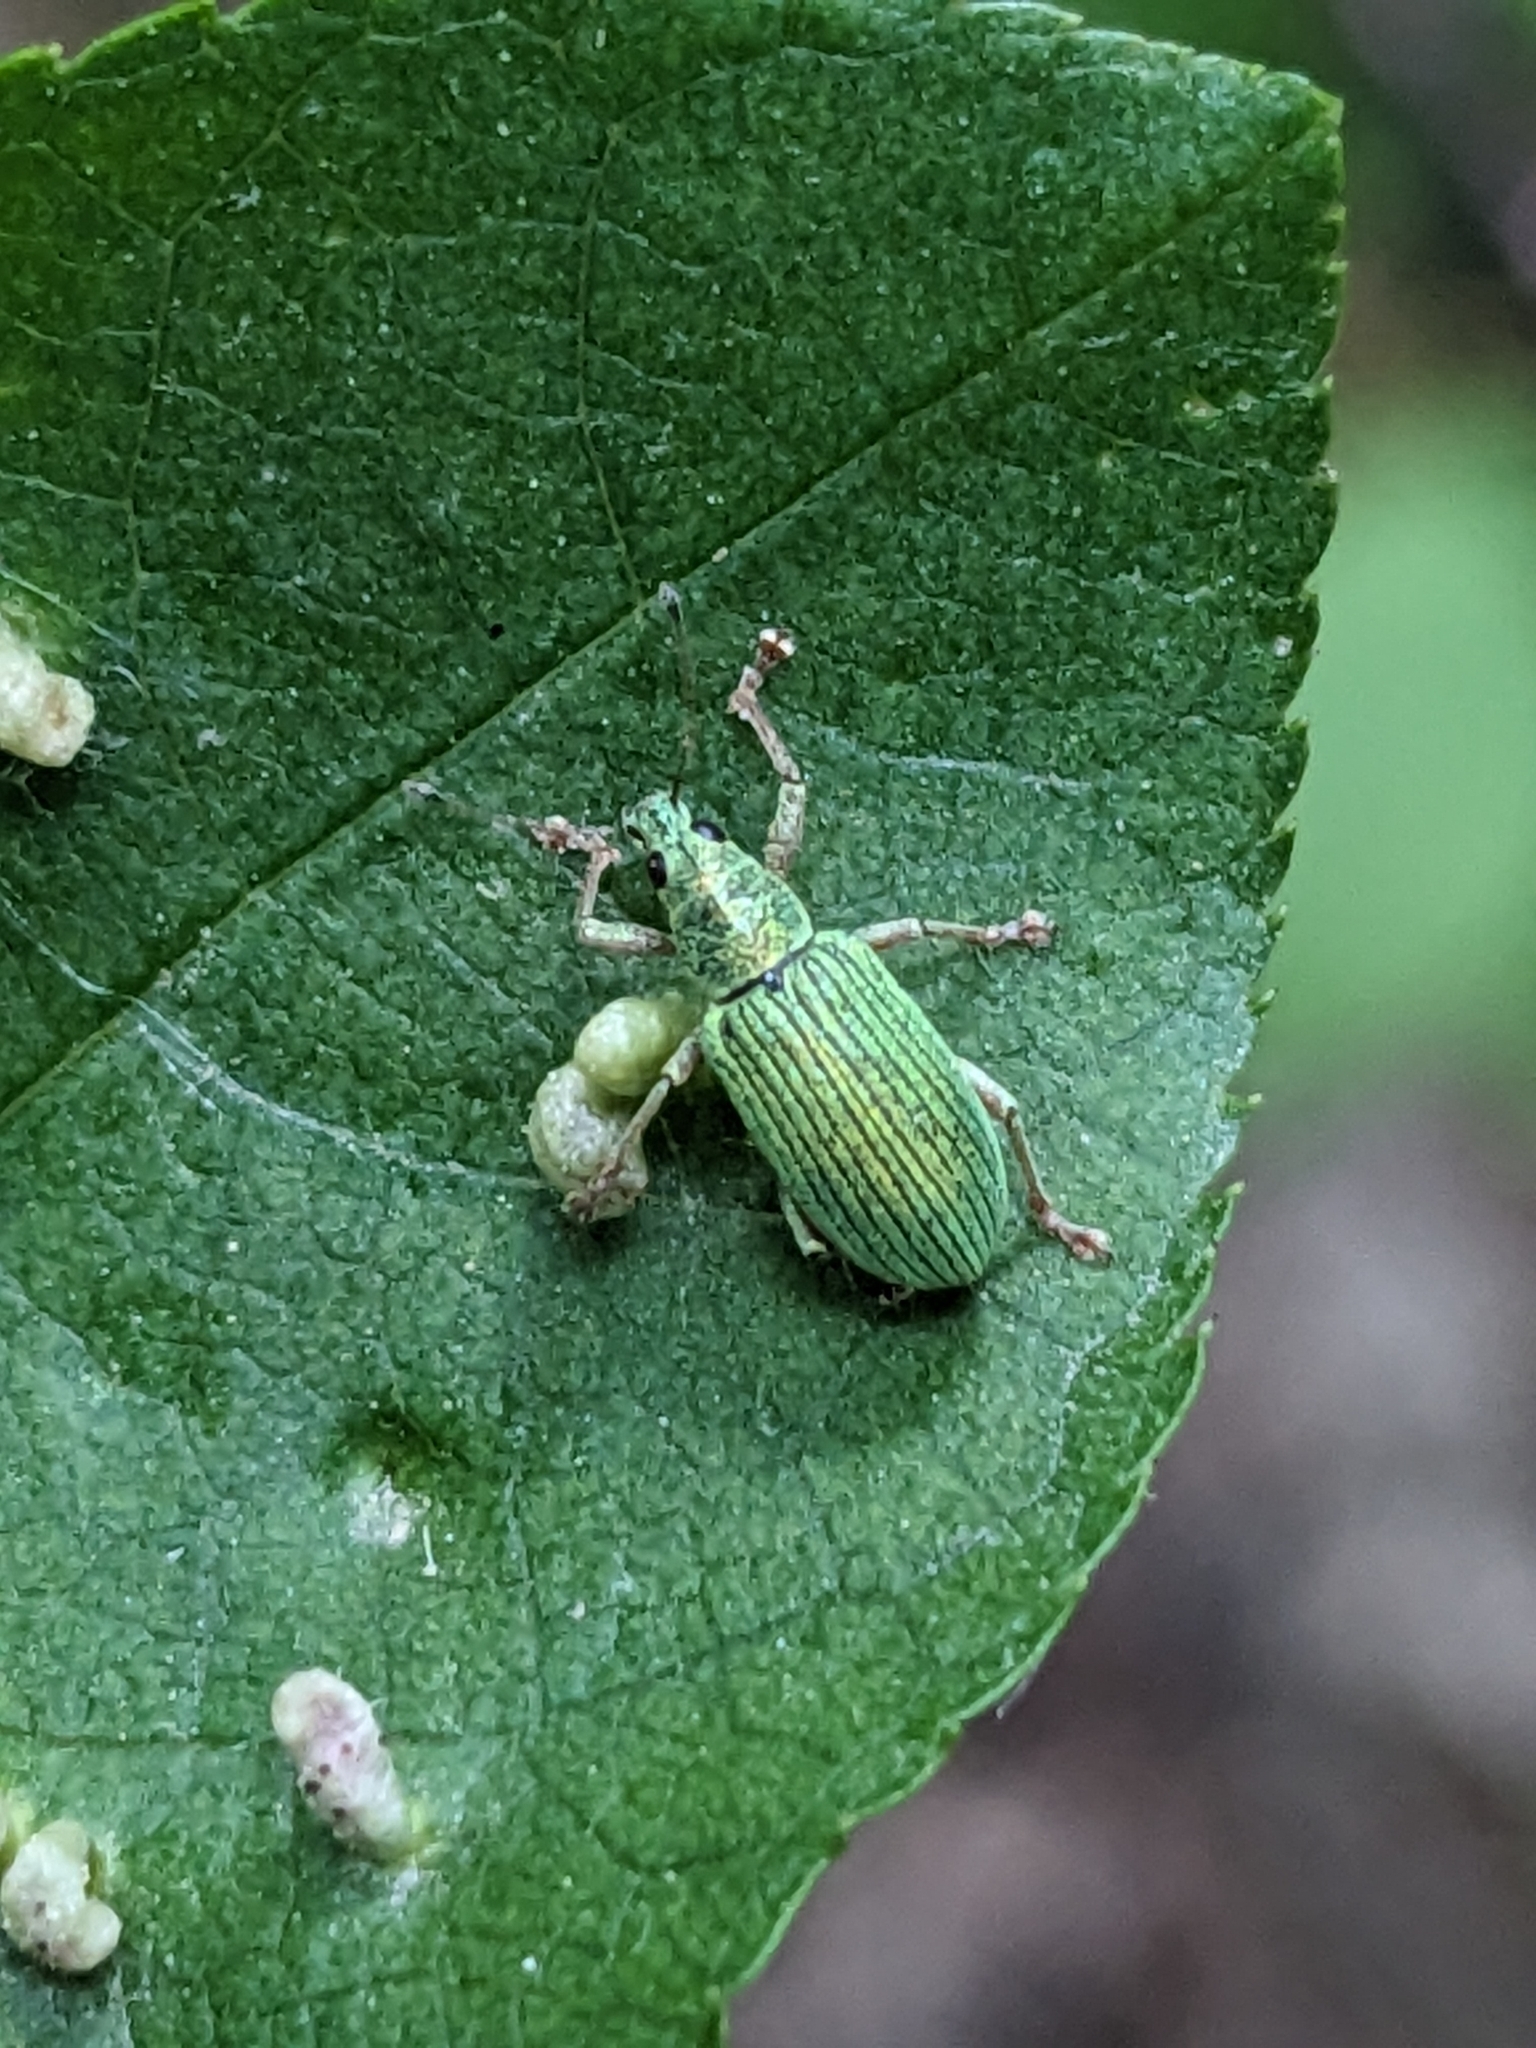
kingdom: Animalia
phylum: Arthropoda
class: Insecta
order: Coleoptera
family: Curculionidae
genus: Polydrusus
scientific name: Polydrusus formosus
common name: Weevil
